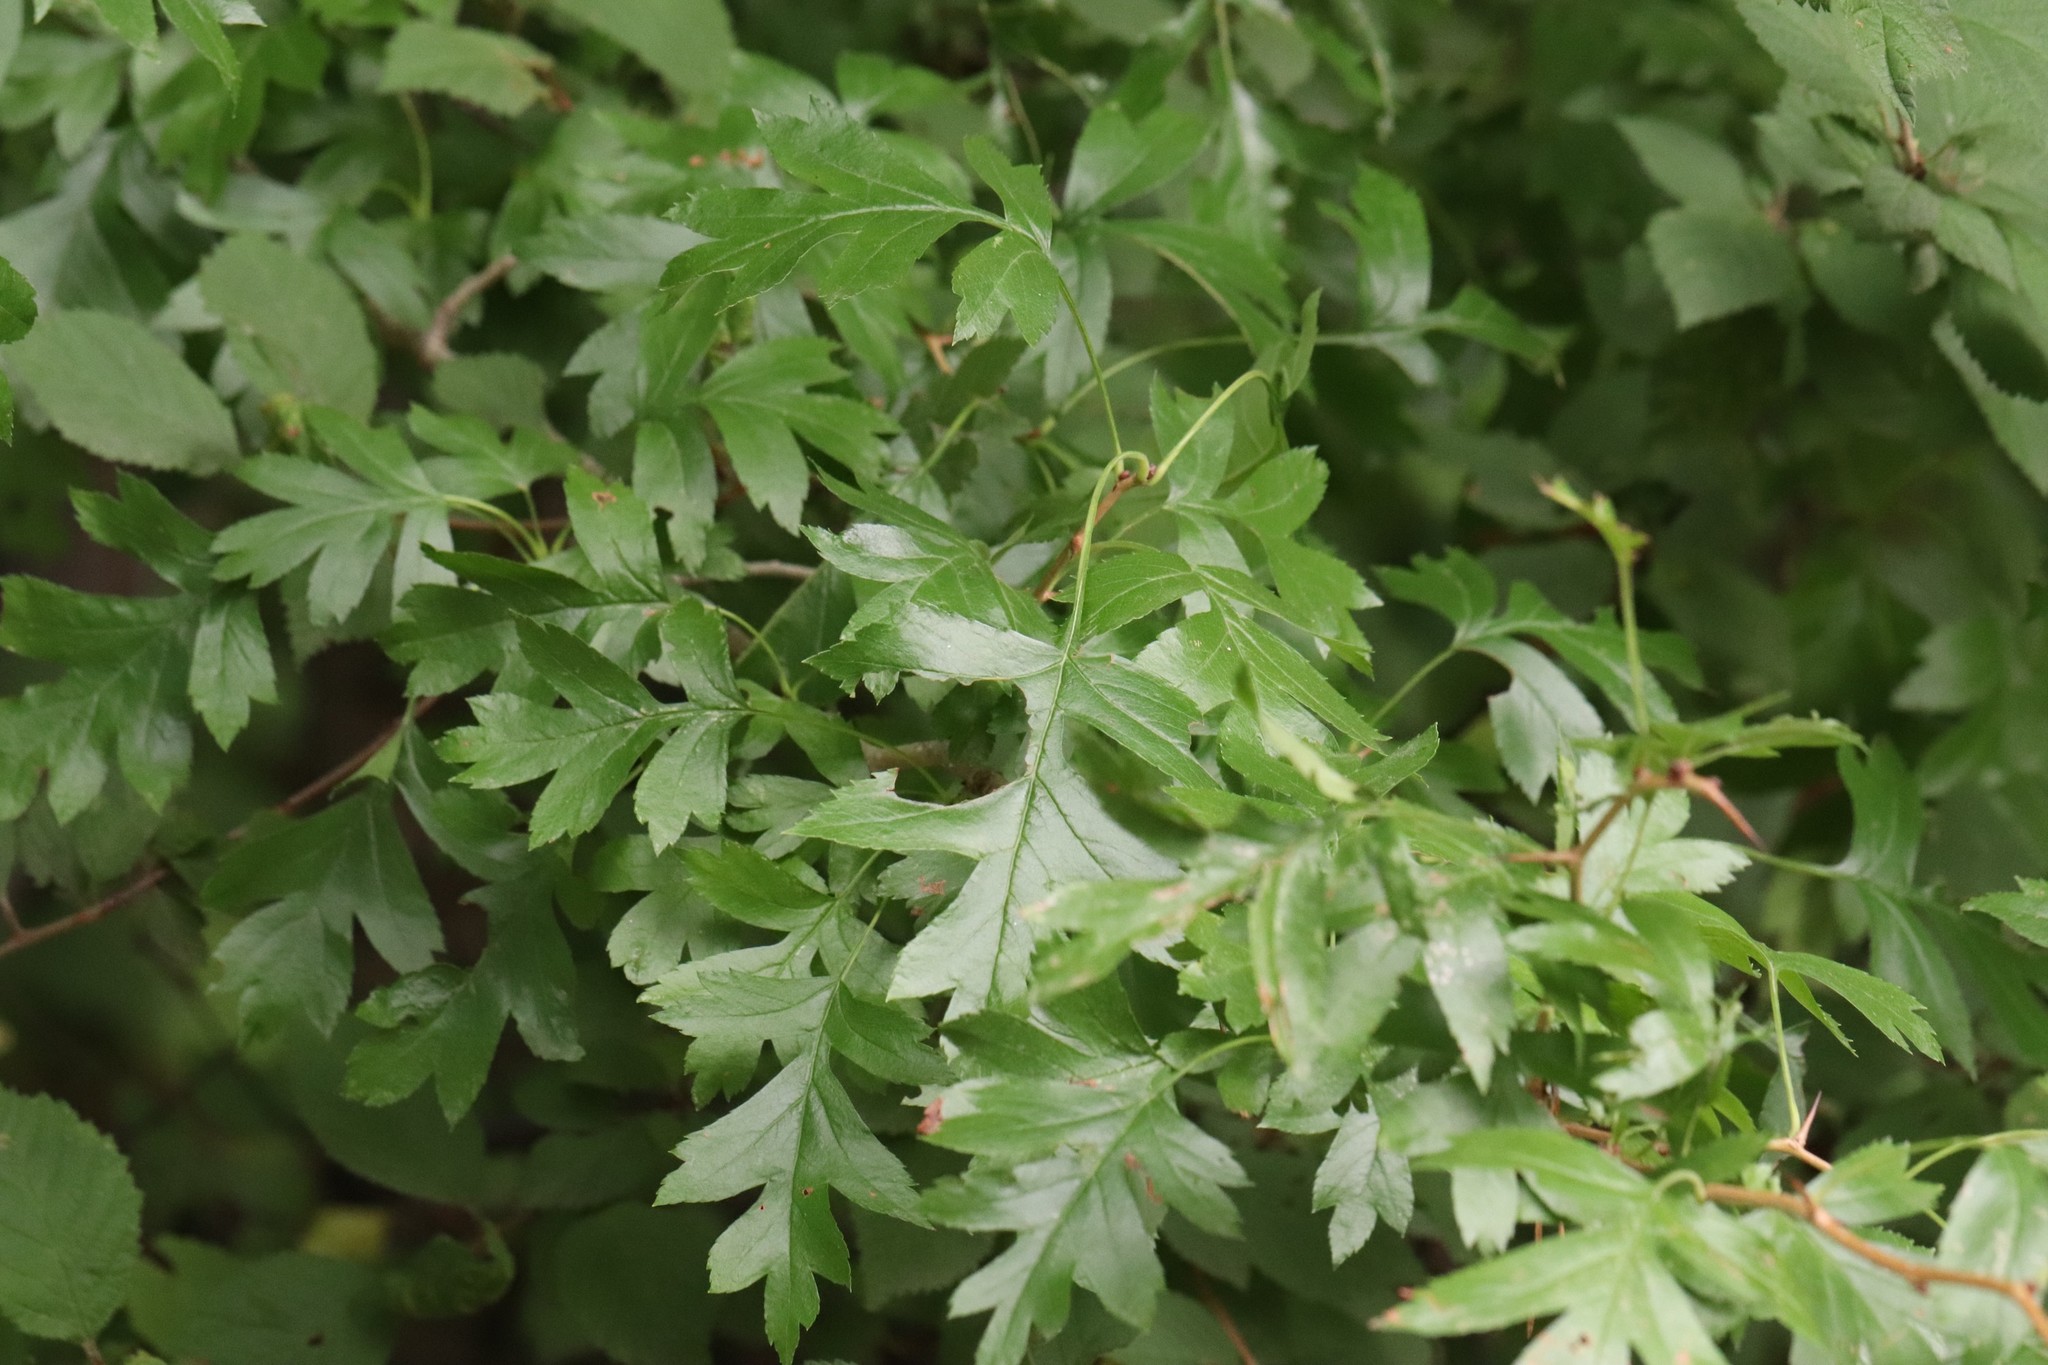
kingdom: Plantae
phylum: Tracheophyta
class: Magnoliopsida
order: Rosales
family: Rosaceae
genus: Crataegus
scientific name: Crataegus pinnatifida
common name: Chinese haw
